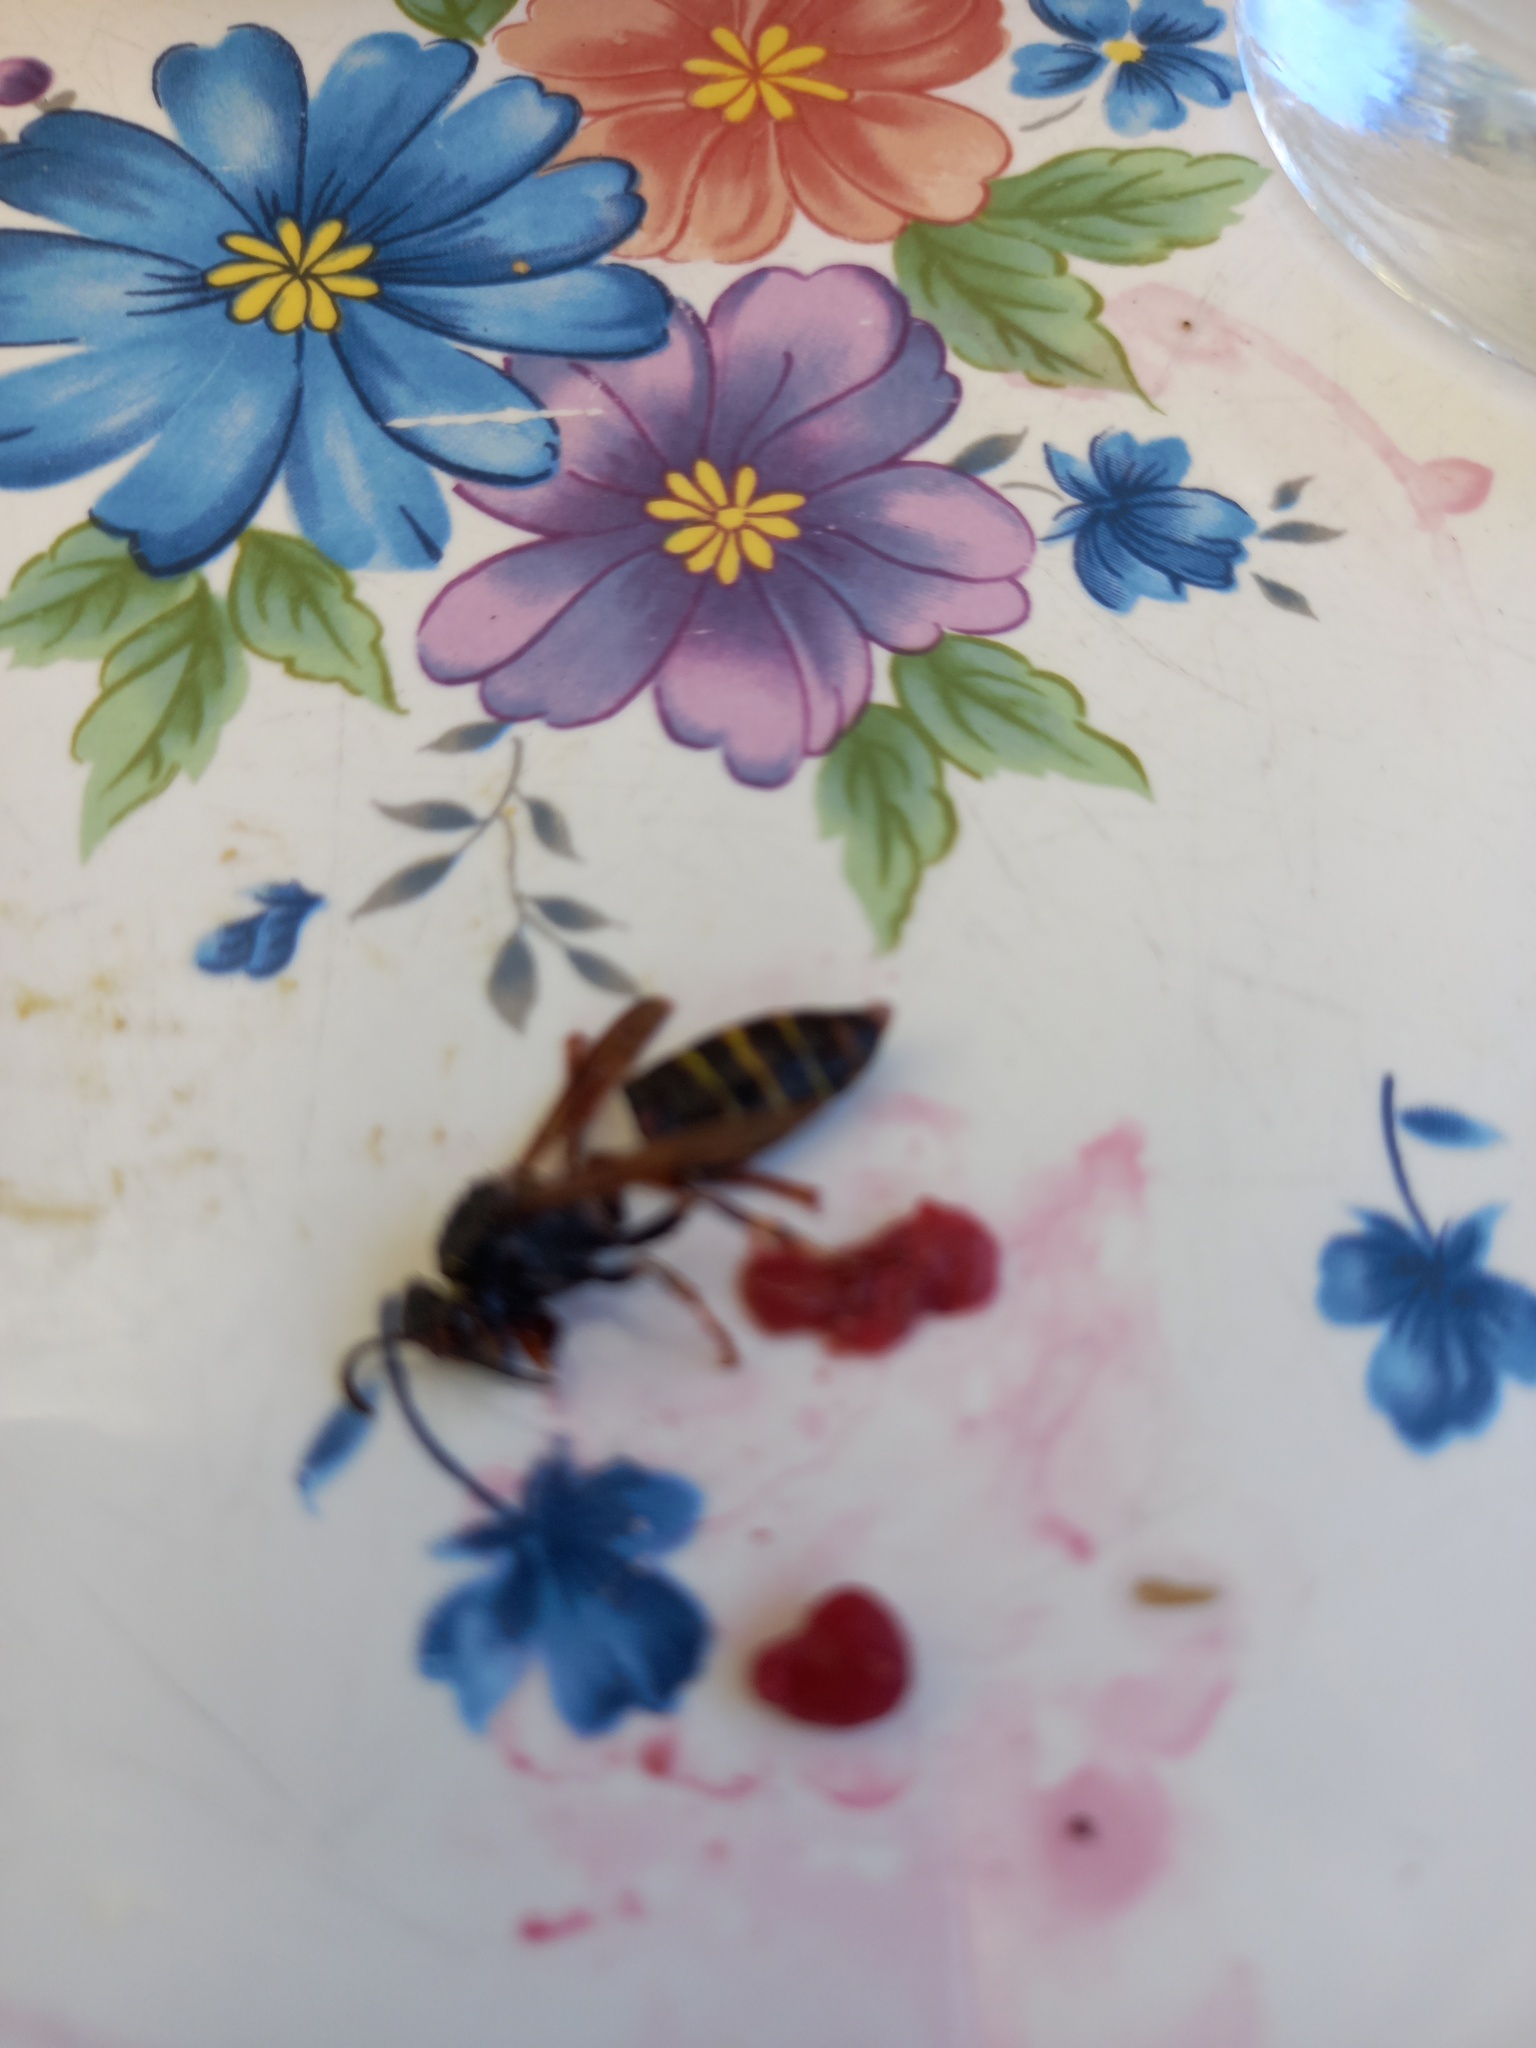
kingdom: Animalia
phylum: Arthropoda
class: Insecta
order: Hymenoptera
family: Vespidae
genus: Dolichovespula
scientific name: Dolichovespula media
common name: Median wasp
